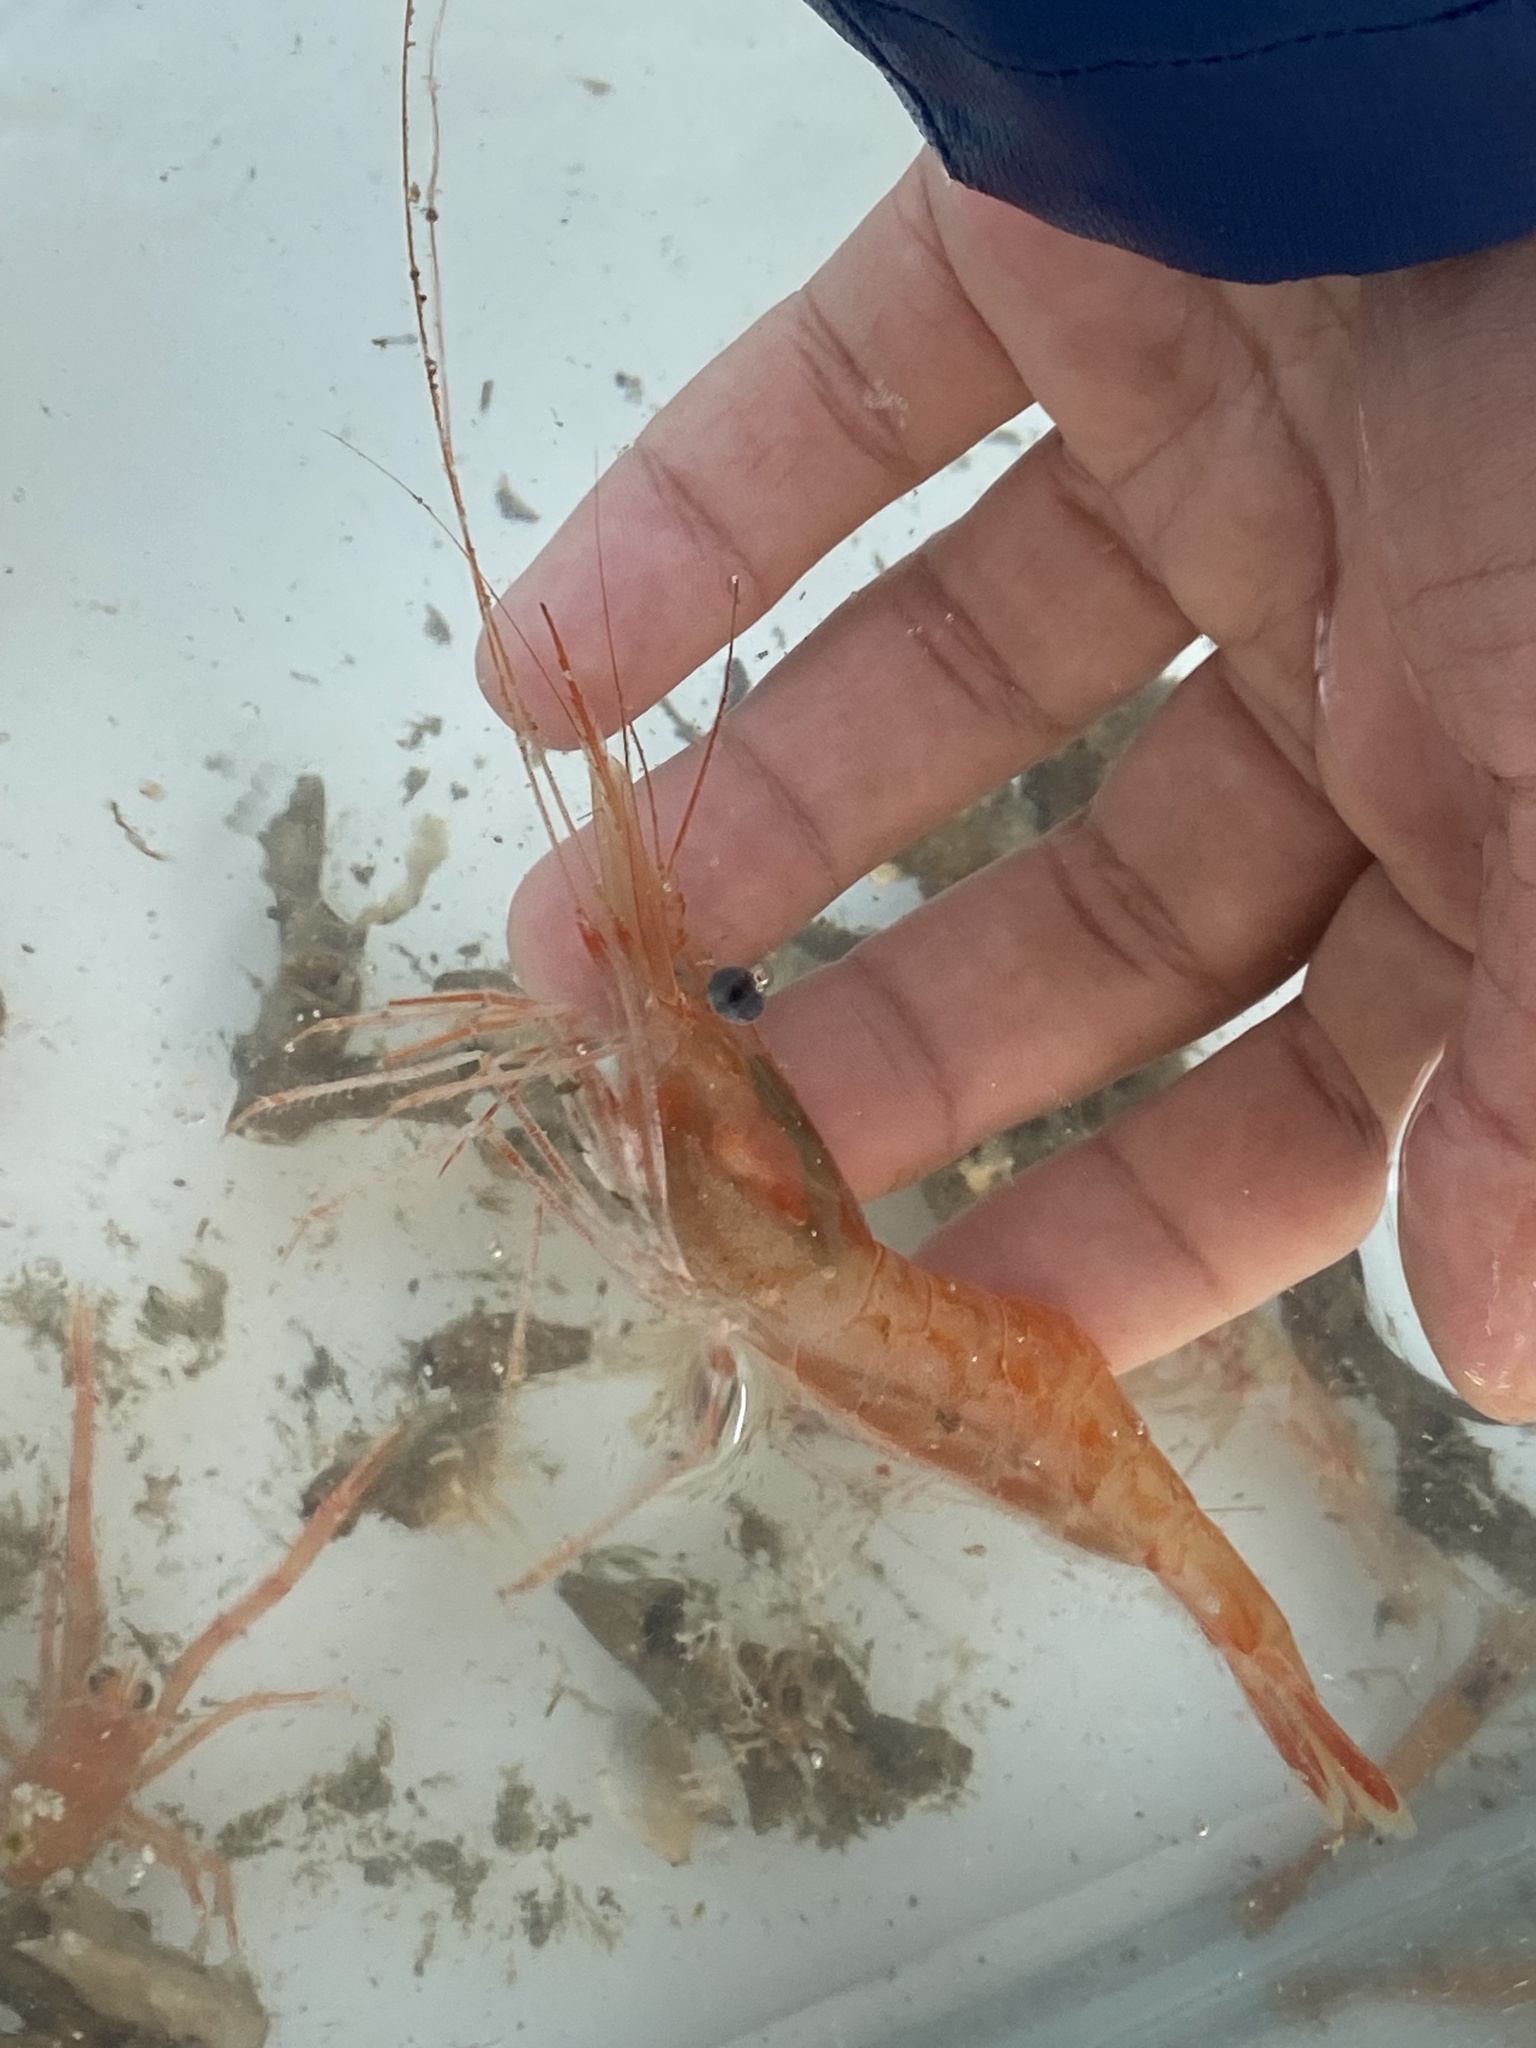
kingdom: Animalia
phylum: Arthropoda
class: Malacostraca
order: Decapoda
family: Pandalidae
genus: Pandalus
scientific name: Pandalus borealis
